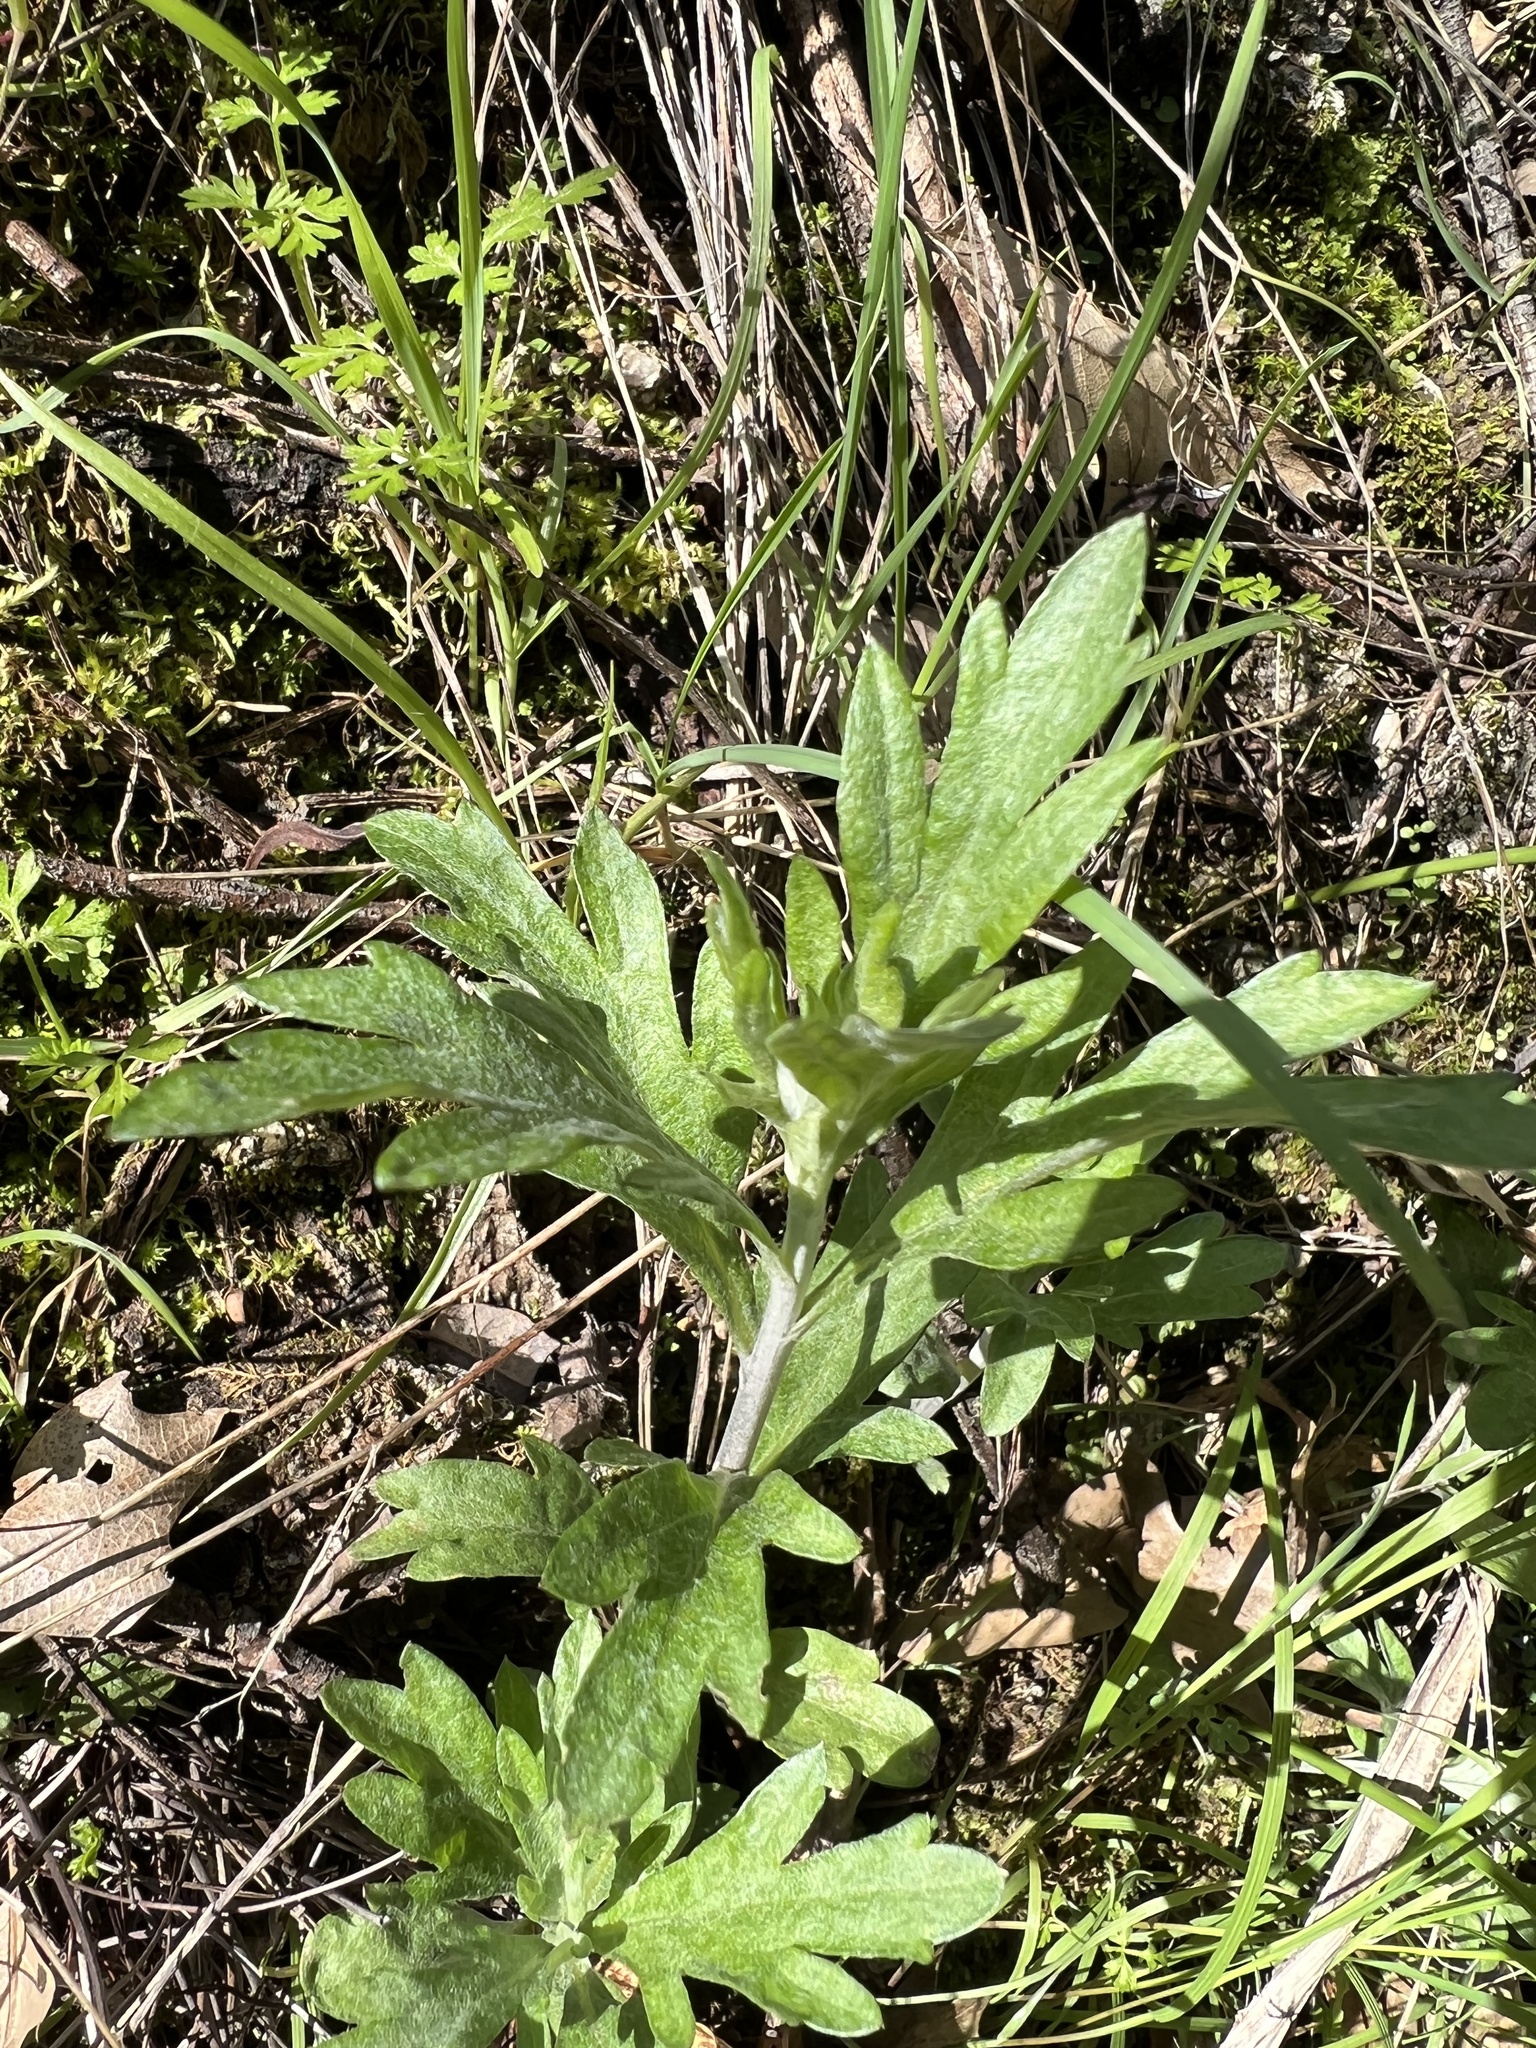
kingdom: Plantae
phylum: Tracheophyta
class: Magnoliopsida
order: Asterales
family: Asteraceae
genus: Artemisia
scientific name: Artemisia douglasiana
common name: Northwest mugwort
